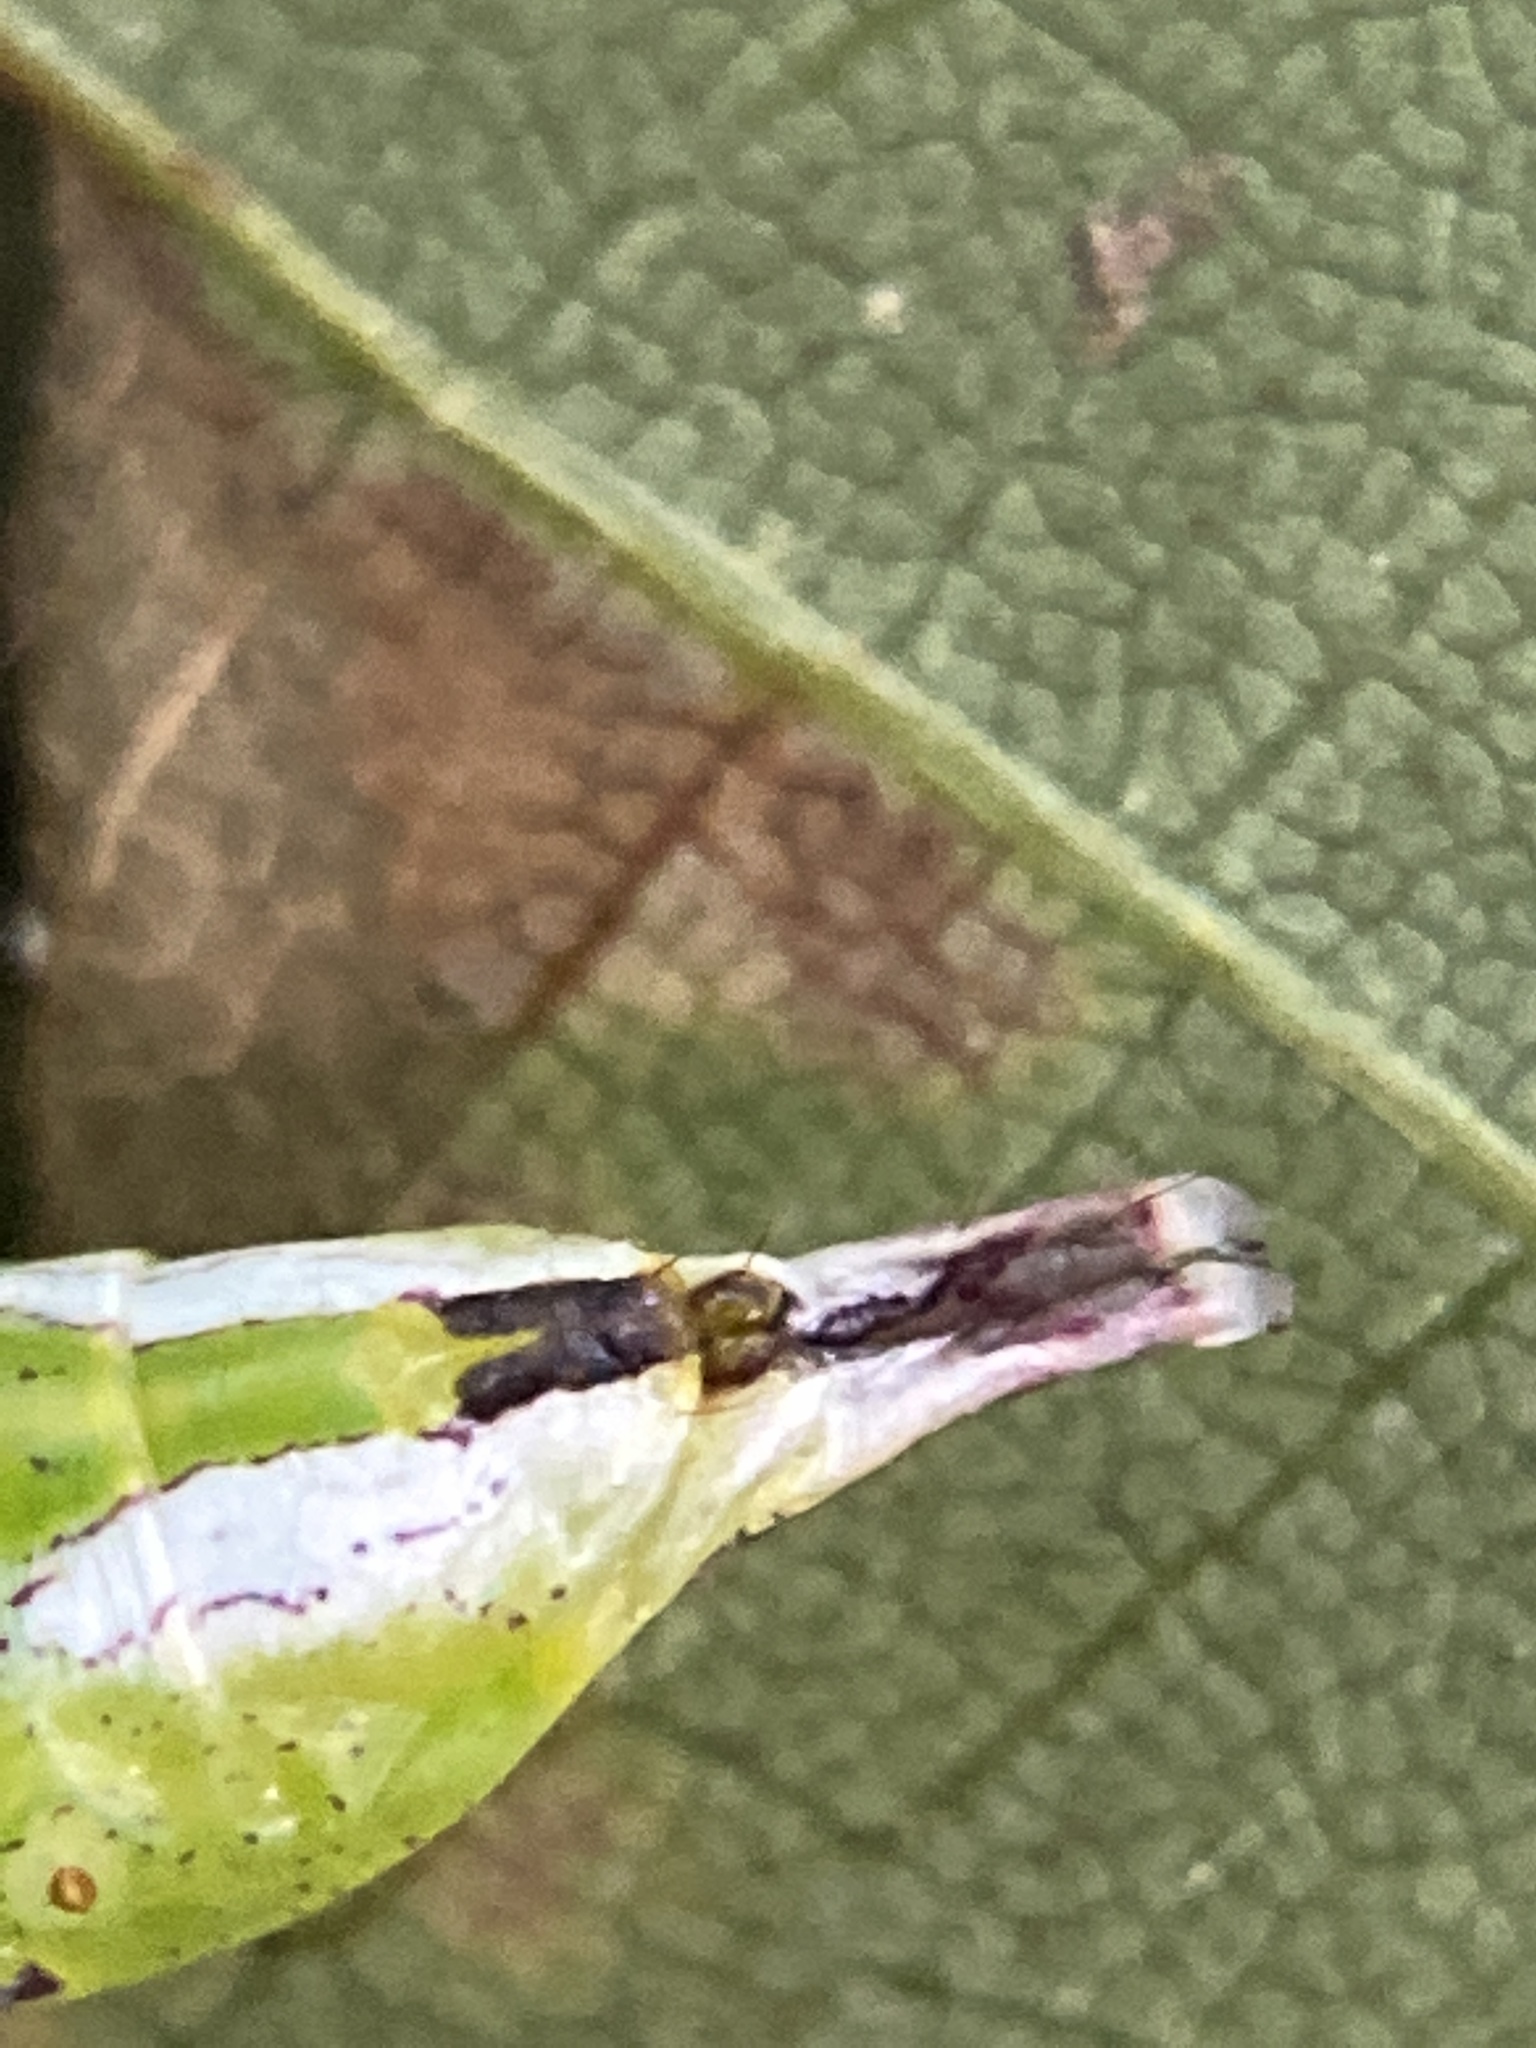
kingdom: Animalia
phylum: Arthropoda
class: Insecta
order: Lepidoptera
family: Notodontidae
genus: Disphragis
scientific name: Disphragis Cecrita biundata
